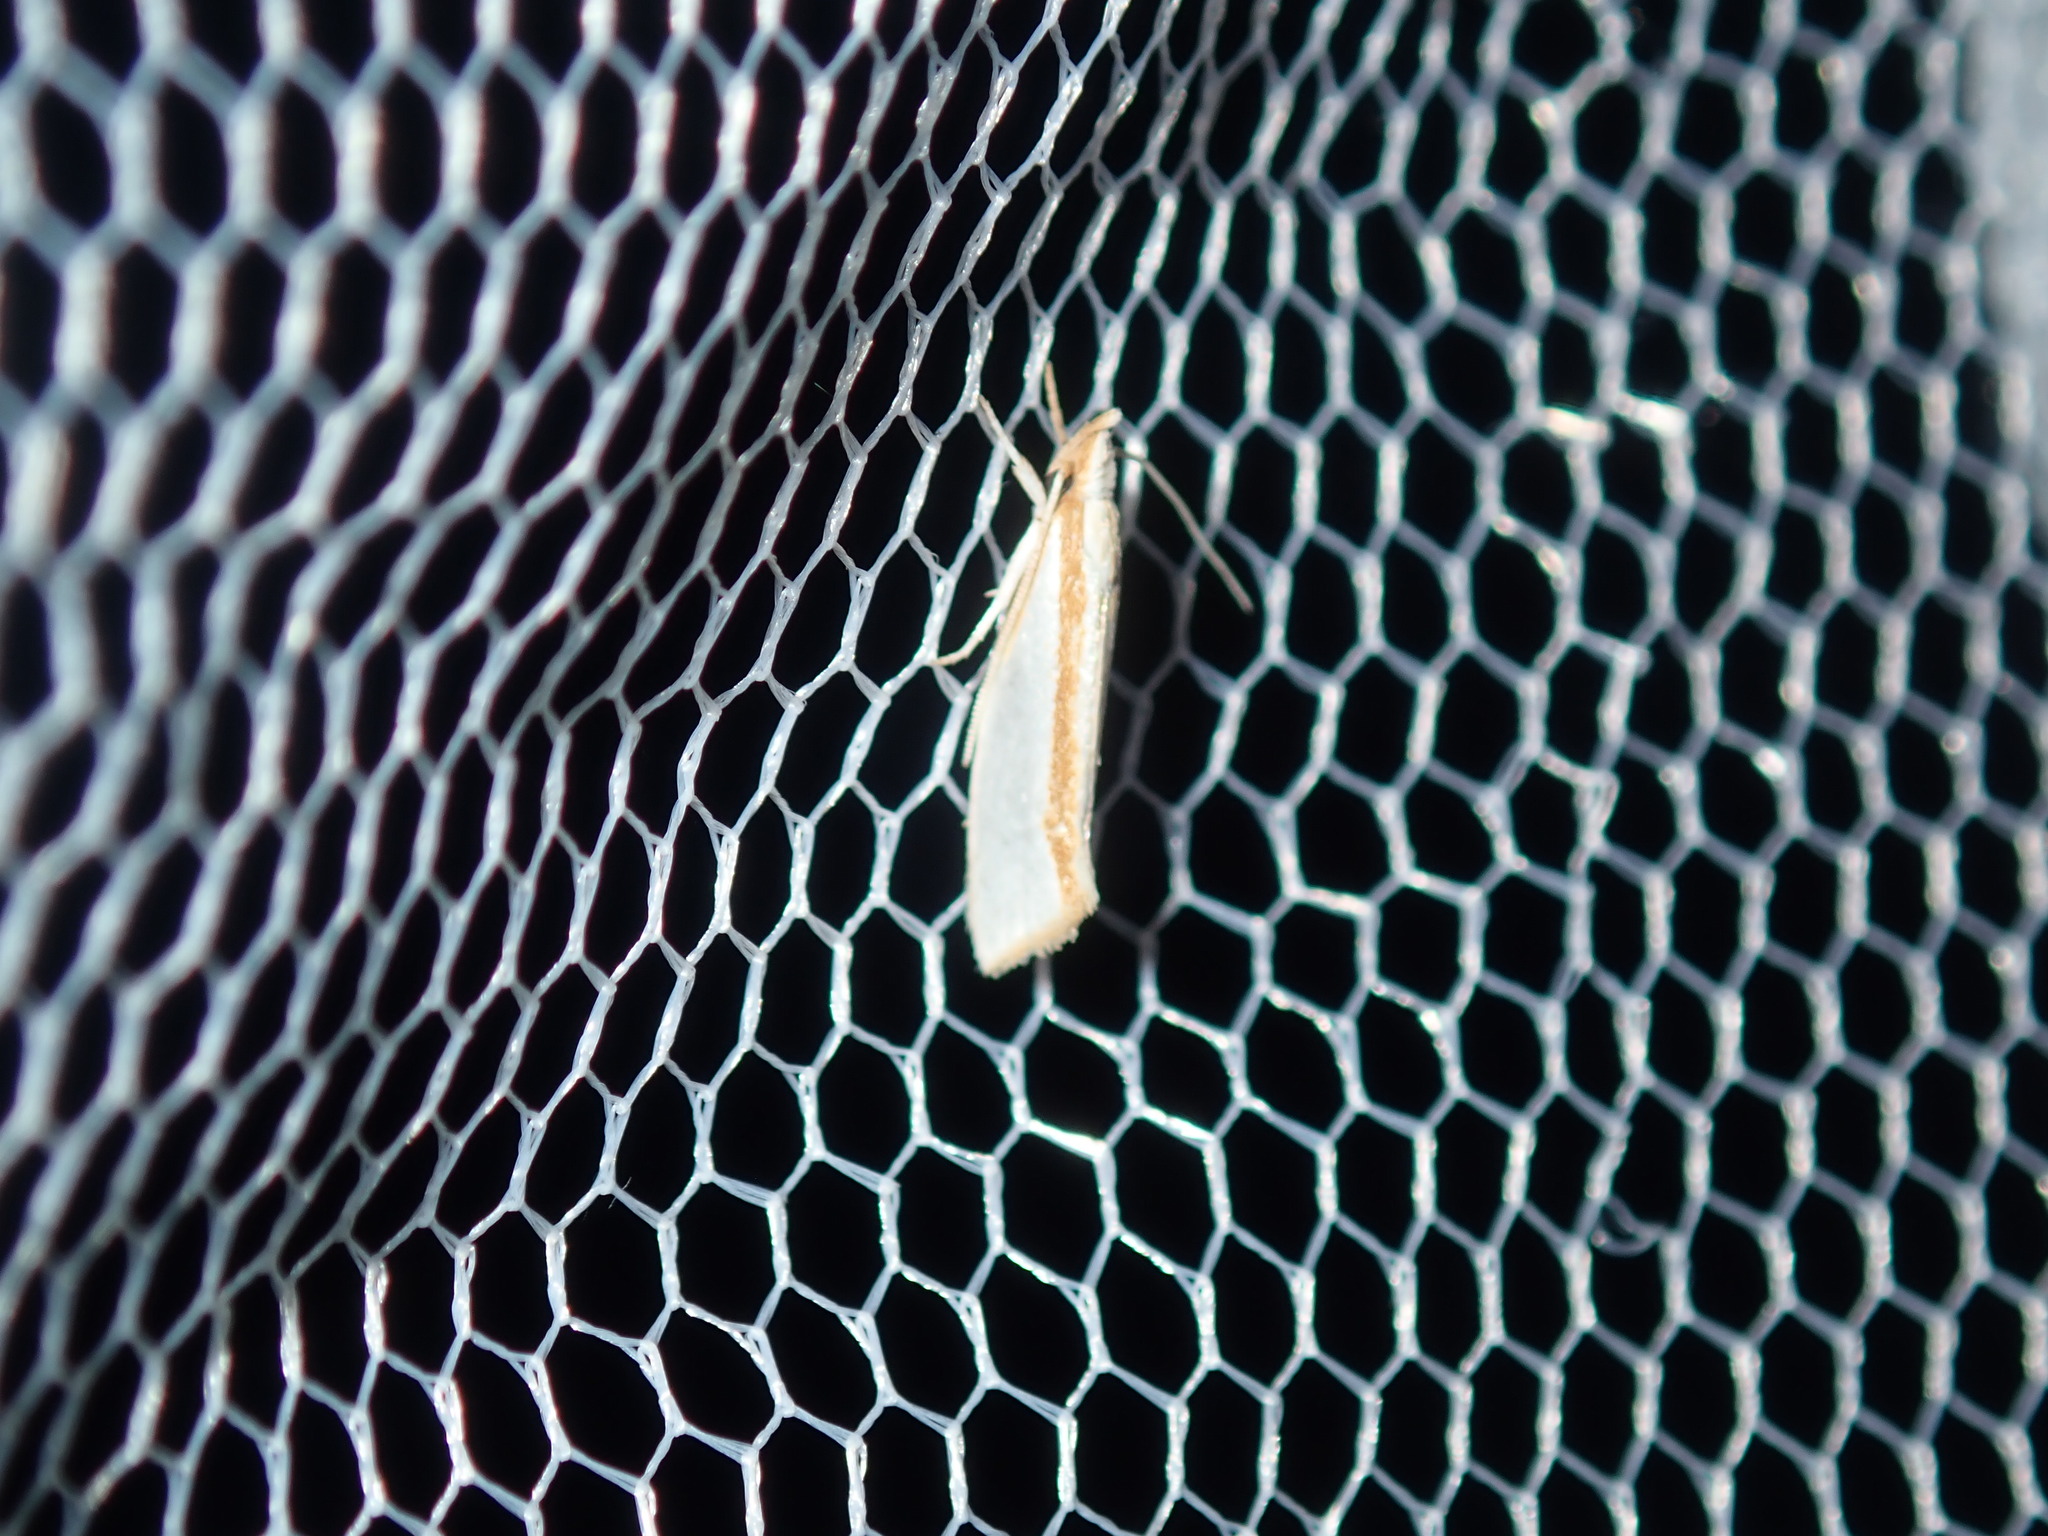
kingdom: Animalia
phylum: Arthropoda
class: Insecta
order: Lepidoptera
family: Depressariidae
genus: Thudaca
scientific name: Thudaca circumdatella
